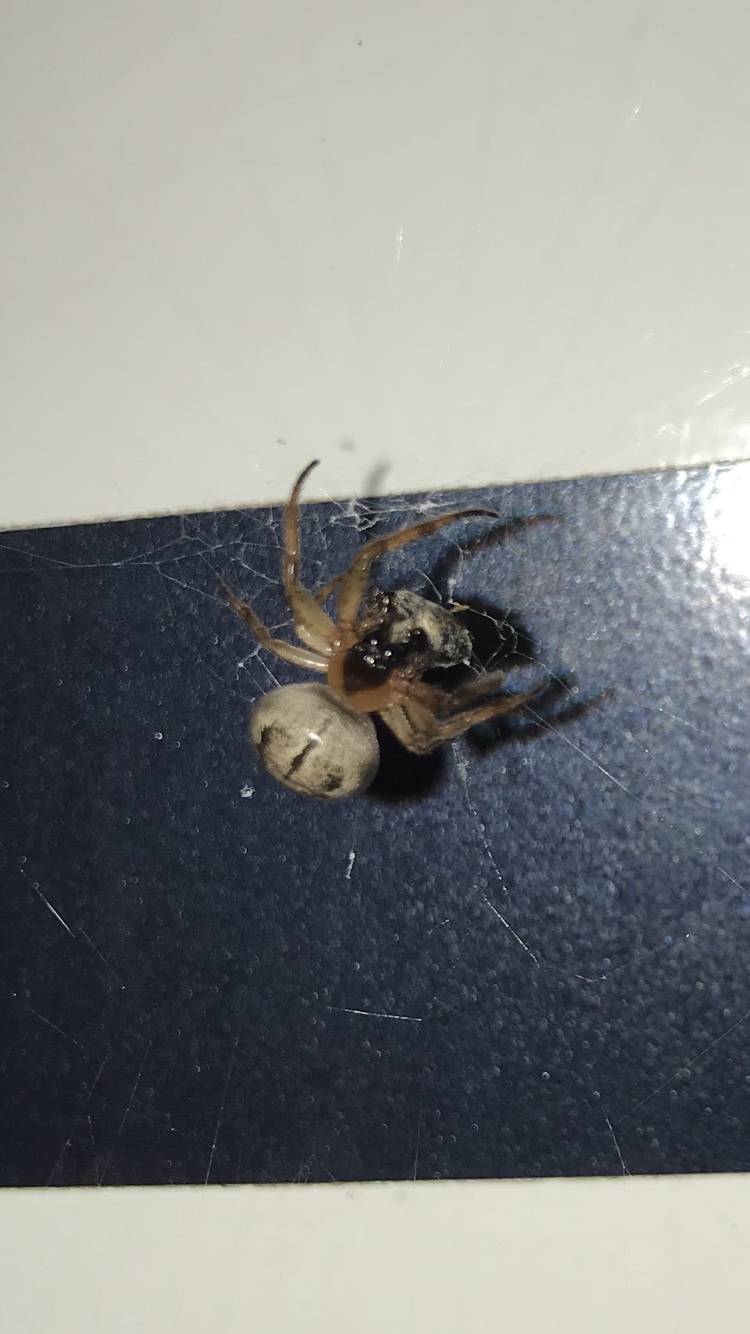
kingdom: Animalia
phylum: Arthropoda
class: Arachnida
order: Araneae
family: Araneidae
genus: Metazygia
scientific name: Metazygia wittfeldae
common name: Orb weavers
